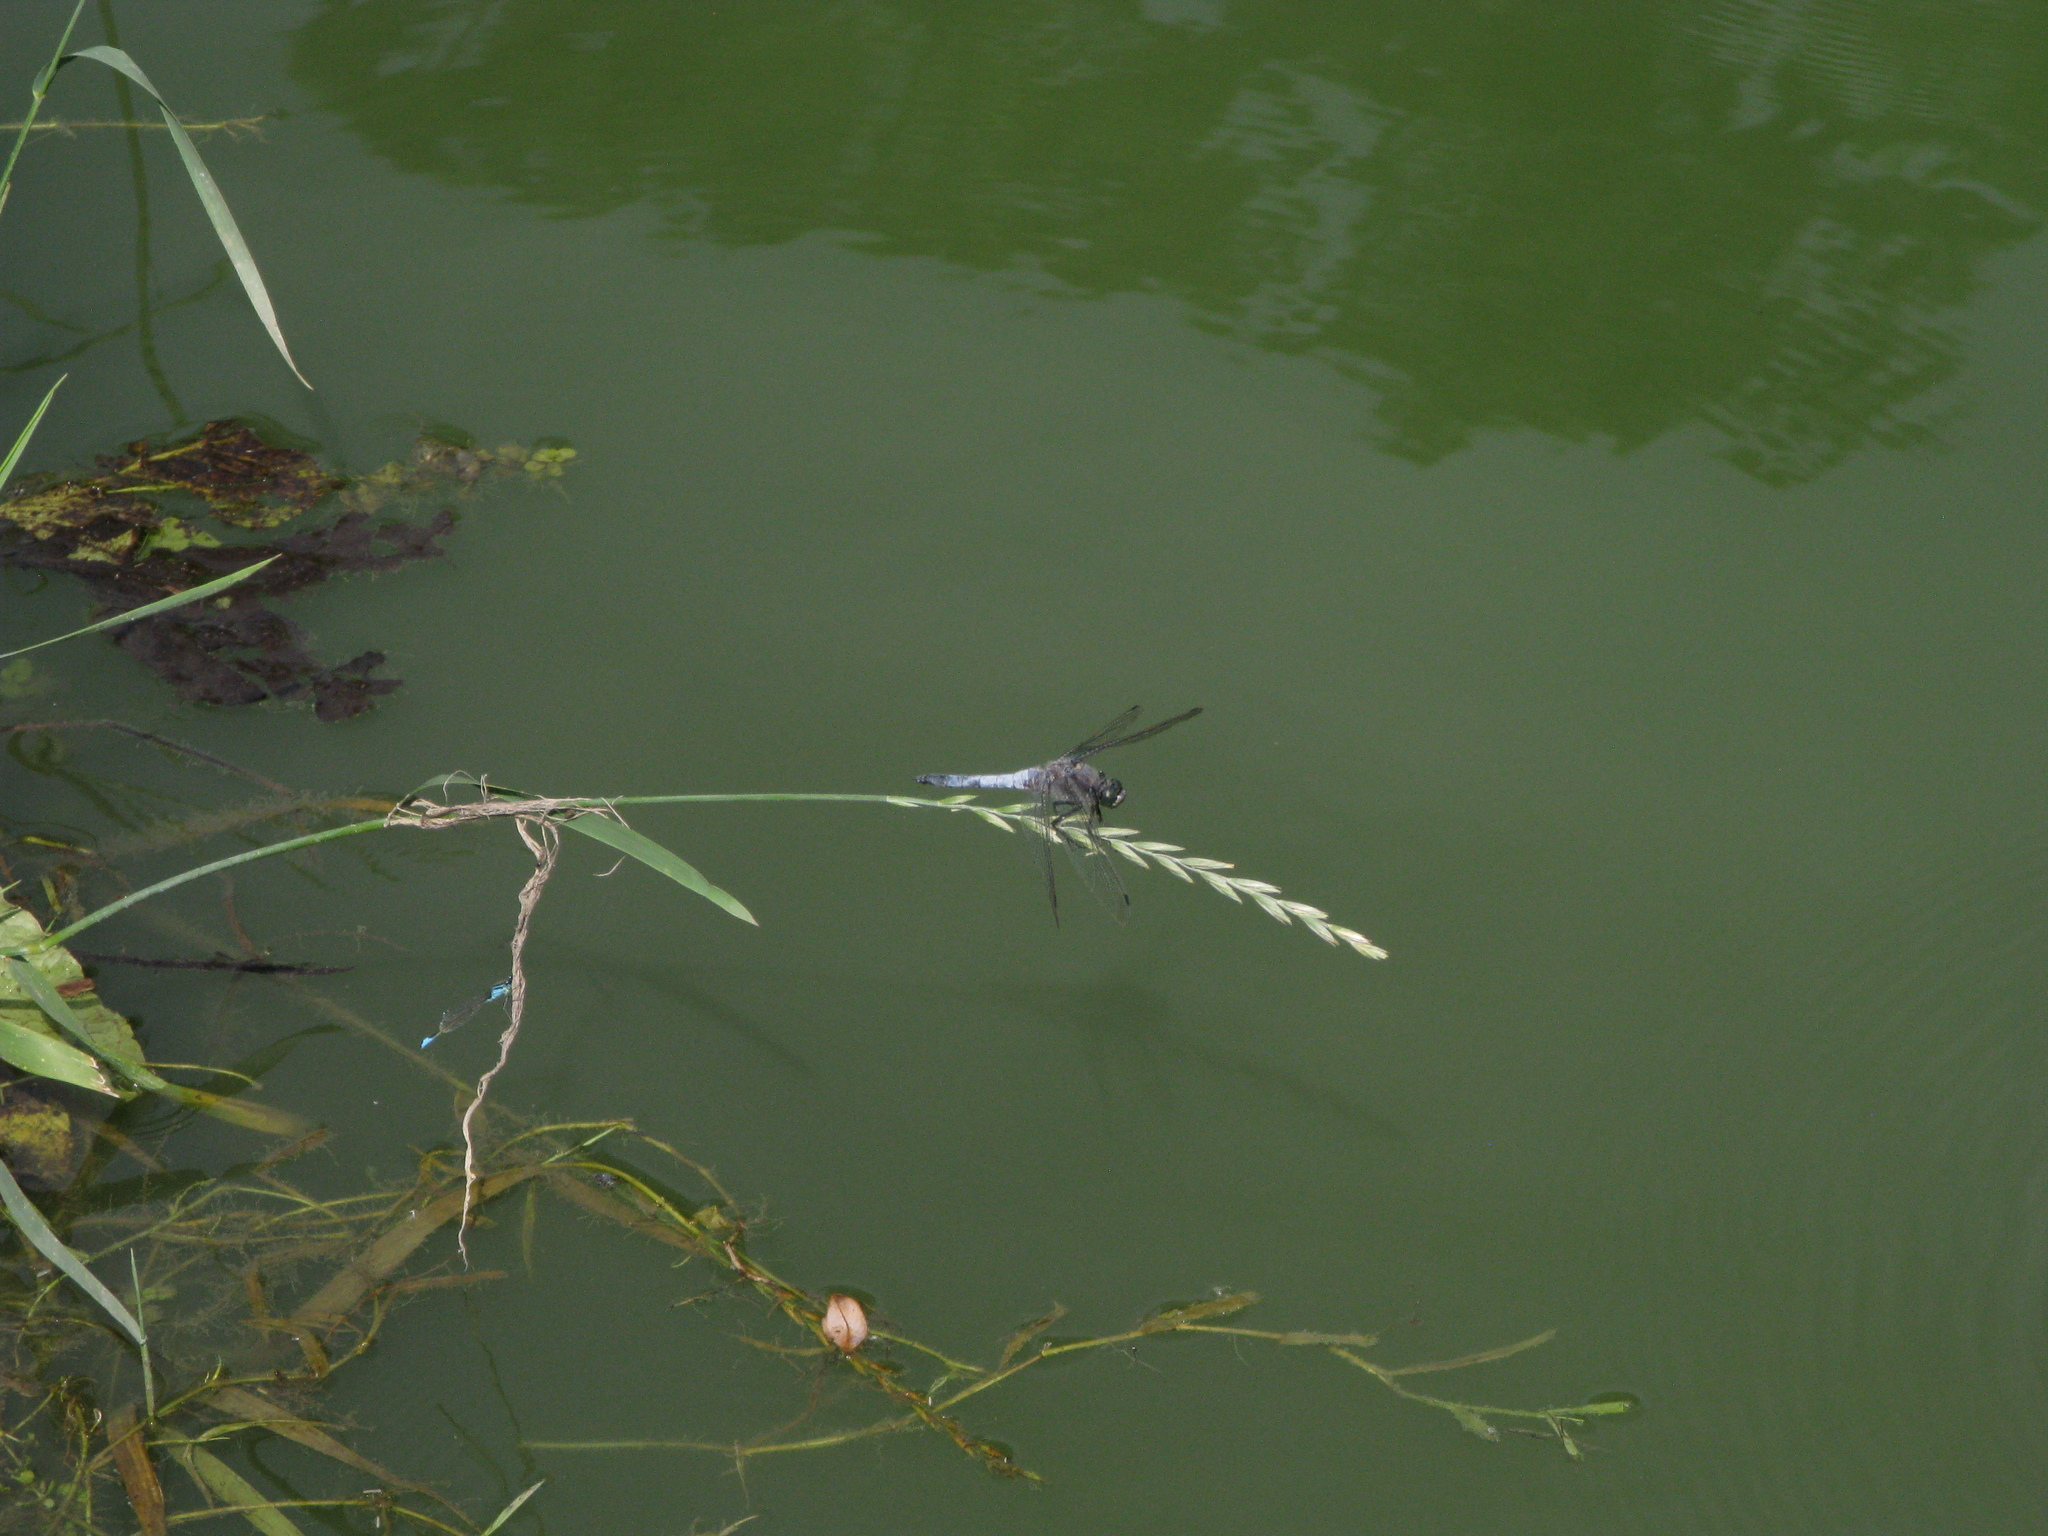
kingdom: Animalia
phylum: Arthropoda
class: Insecta
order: Odonata
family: Libellulidae
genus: Orthetrum
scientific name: Orthetrum cancellatum
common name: Black-tailed skimmer
